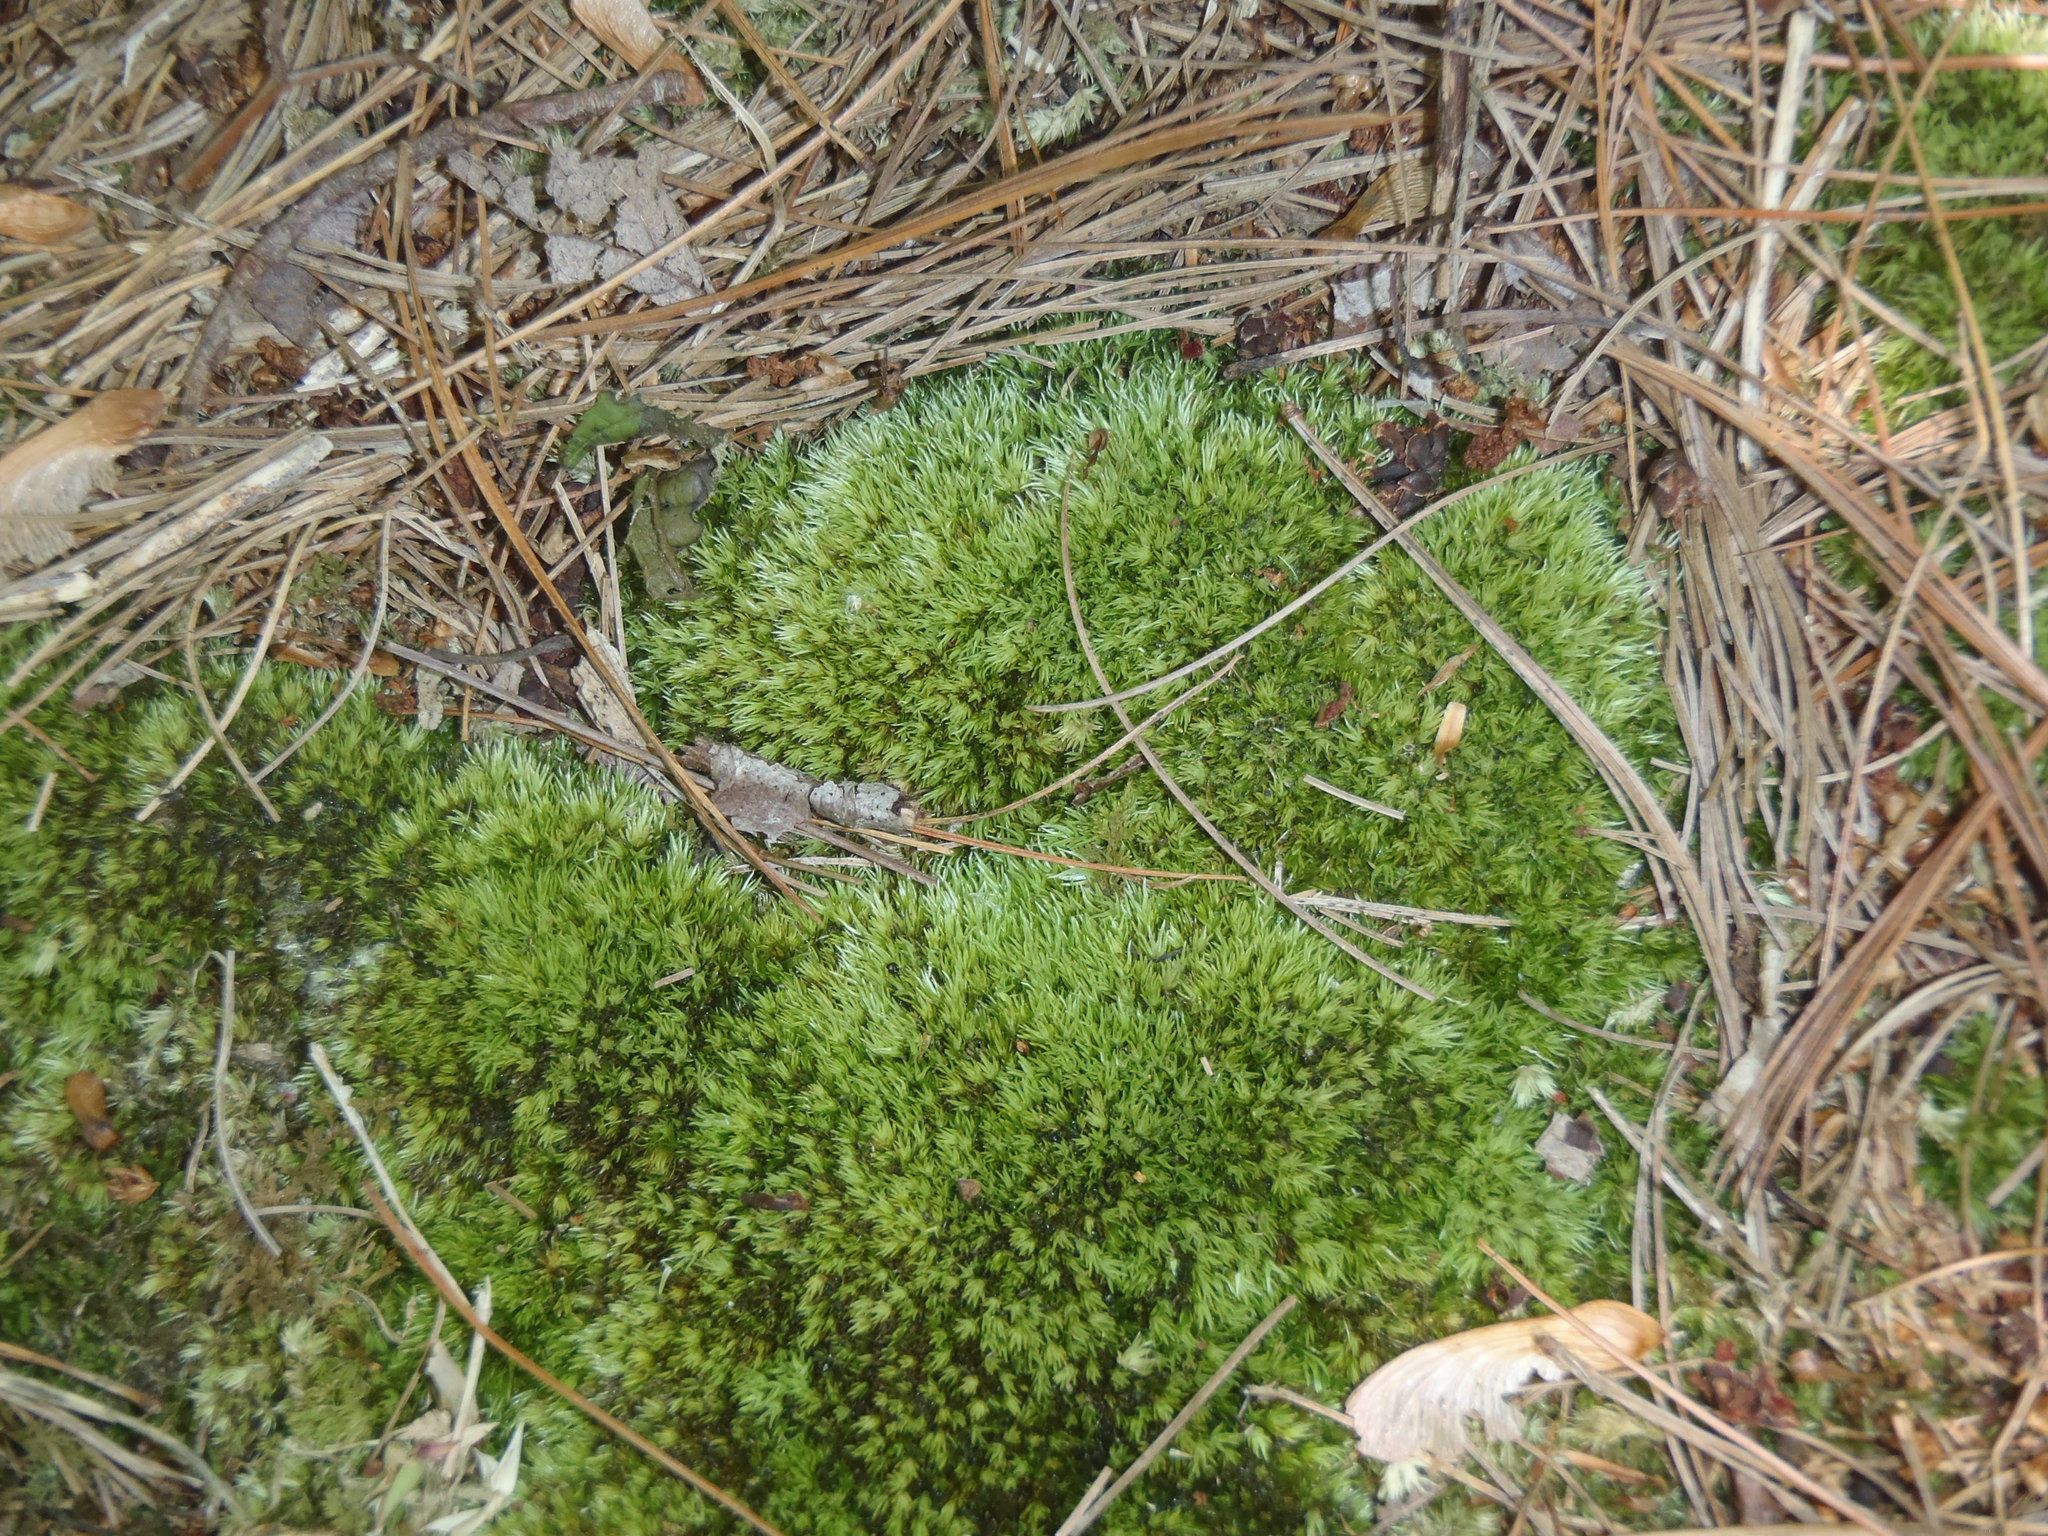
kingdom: Plantae
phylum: Bryophyta
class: Bryopsida
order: Dicranales
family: Leucobryaceae
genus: Leucobryum
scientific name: Leucobryum albidum
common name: White moss
